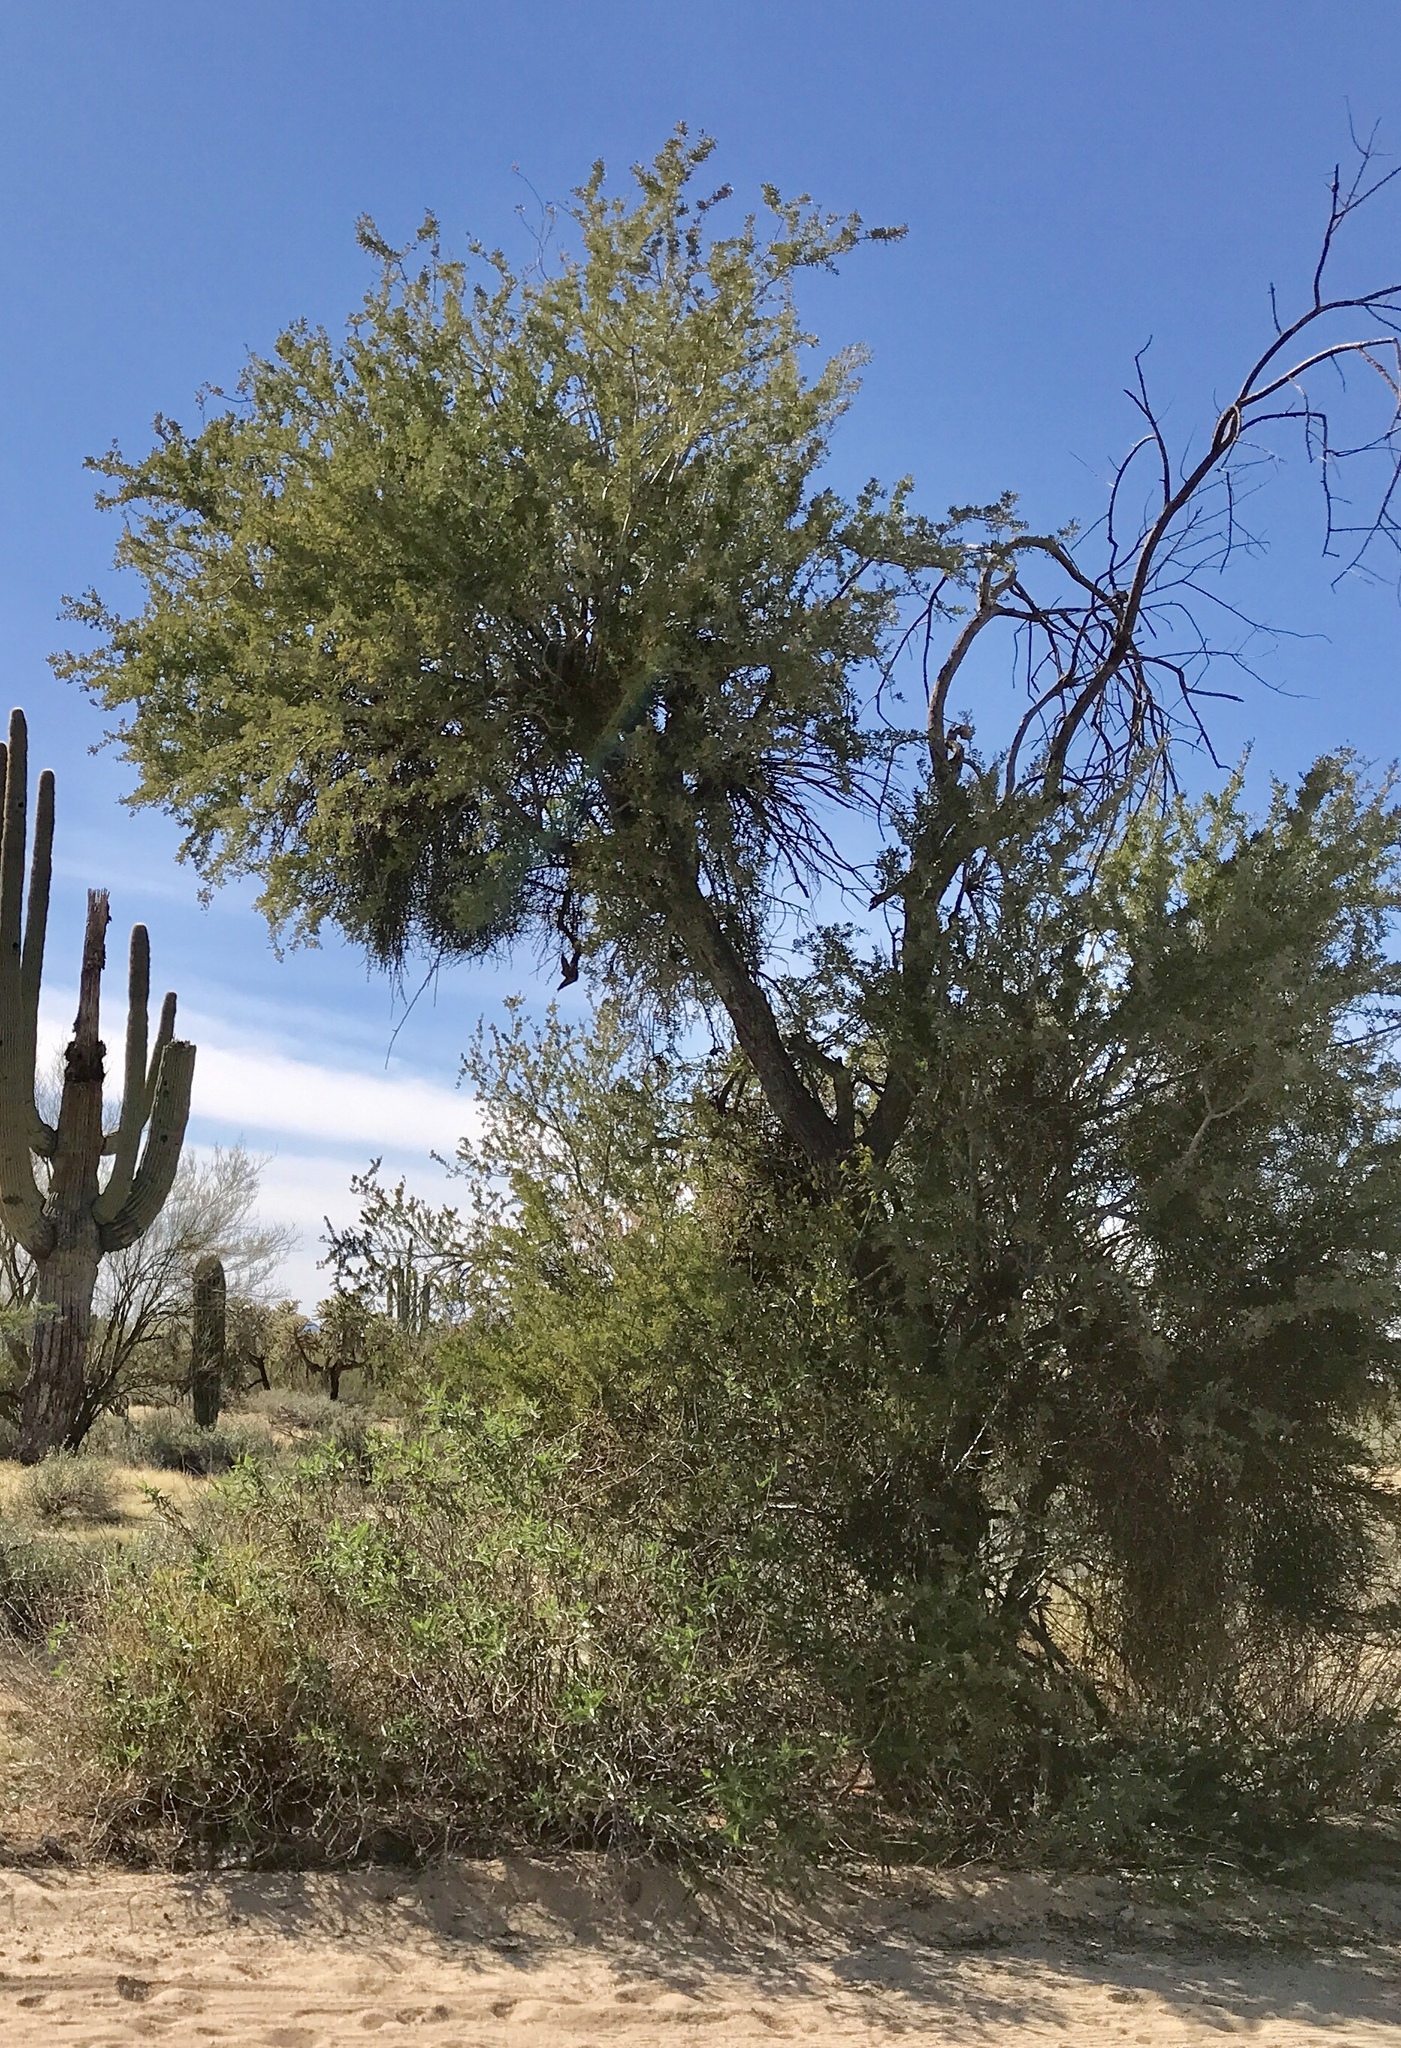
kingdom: Plantae
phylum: Tracheophyta
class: Magnoliopsida
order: Fabales
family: Fabaceae
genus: Olneya
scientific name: Olneya tesota
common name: Desert ironwood
